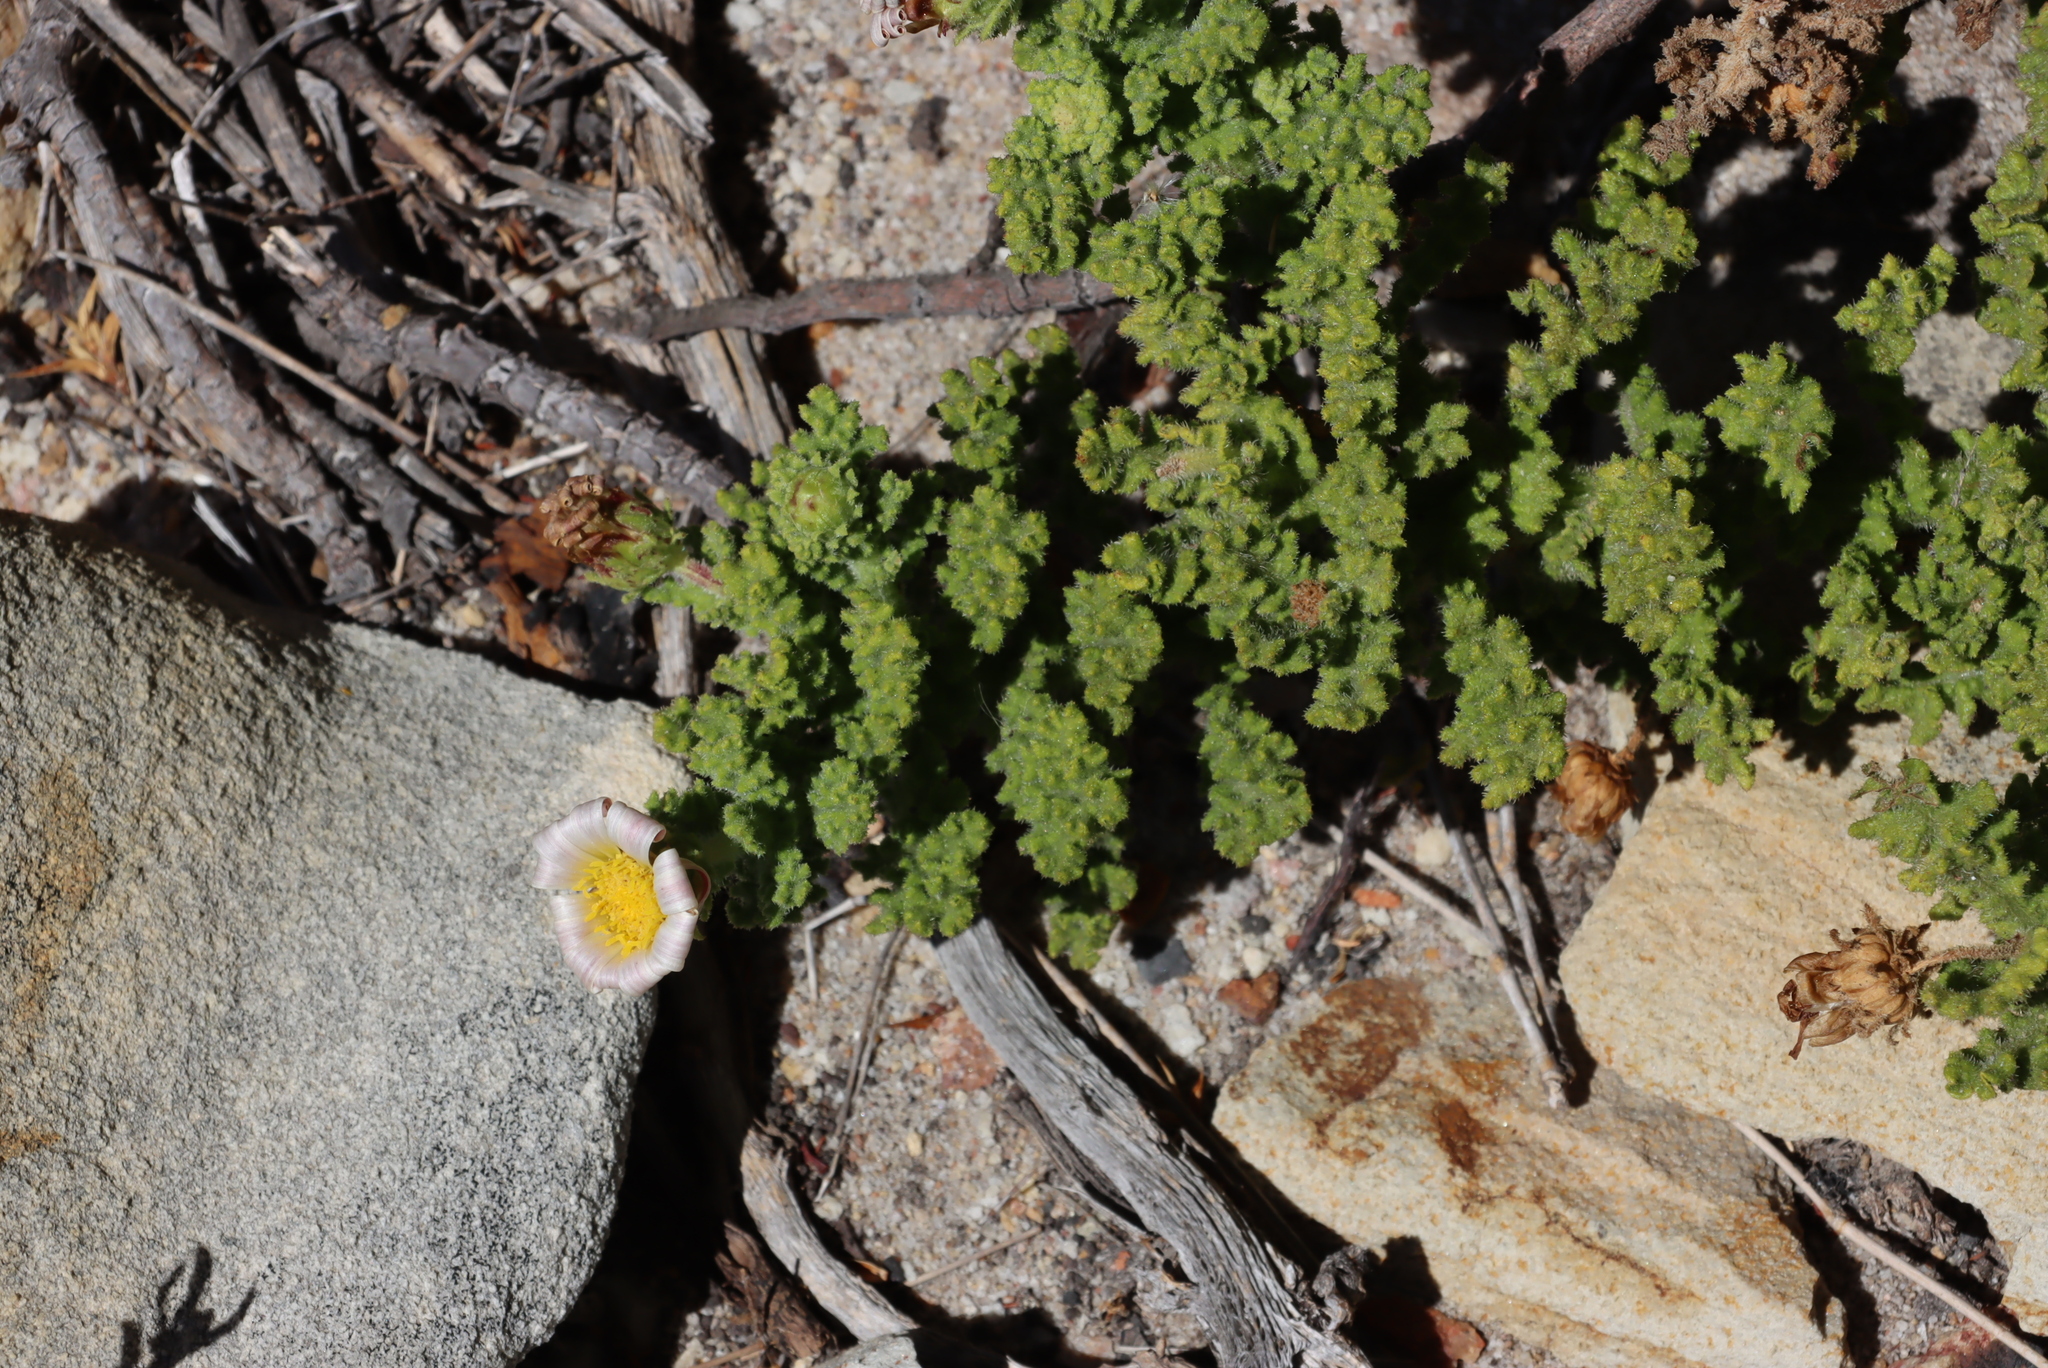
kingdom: Plantae
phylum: Tracheophyta
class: Magnoliopsida
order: Asterales
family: Asteraceae
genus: Arctotis
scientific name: Arctotis aspera
